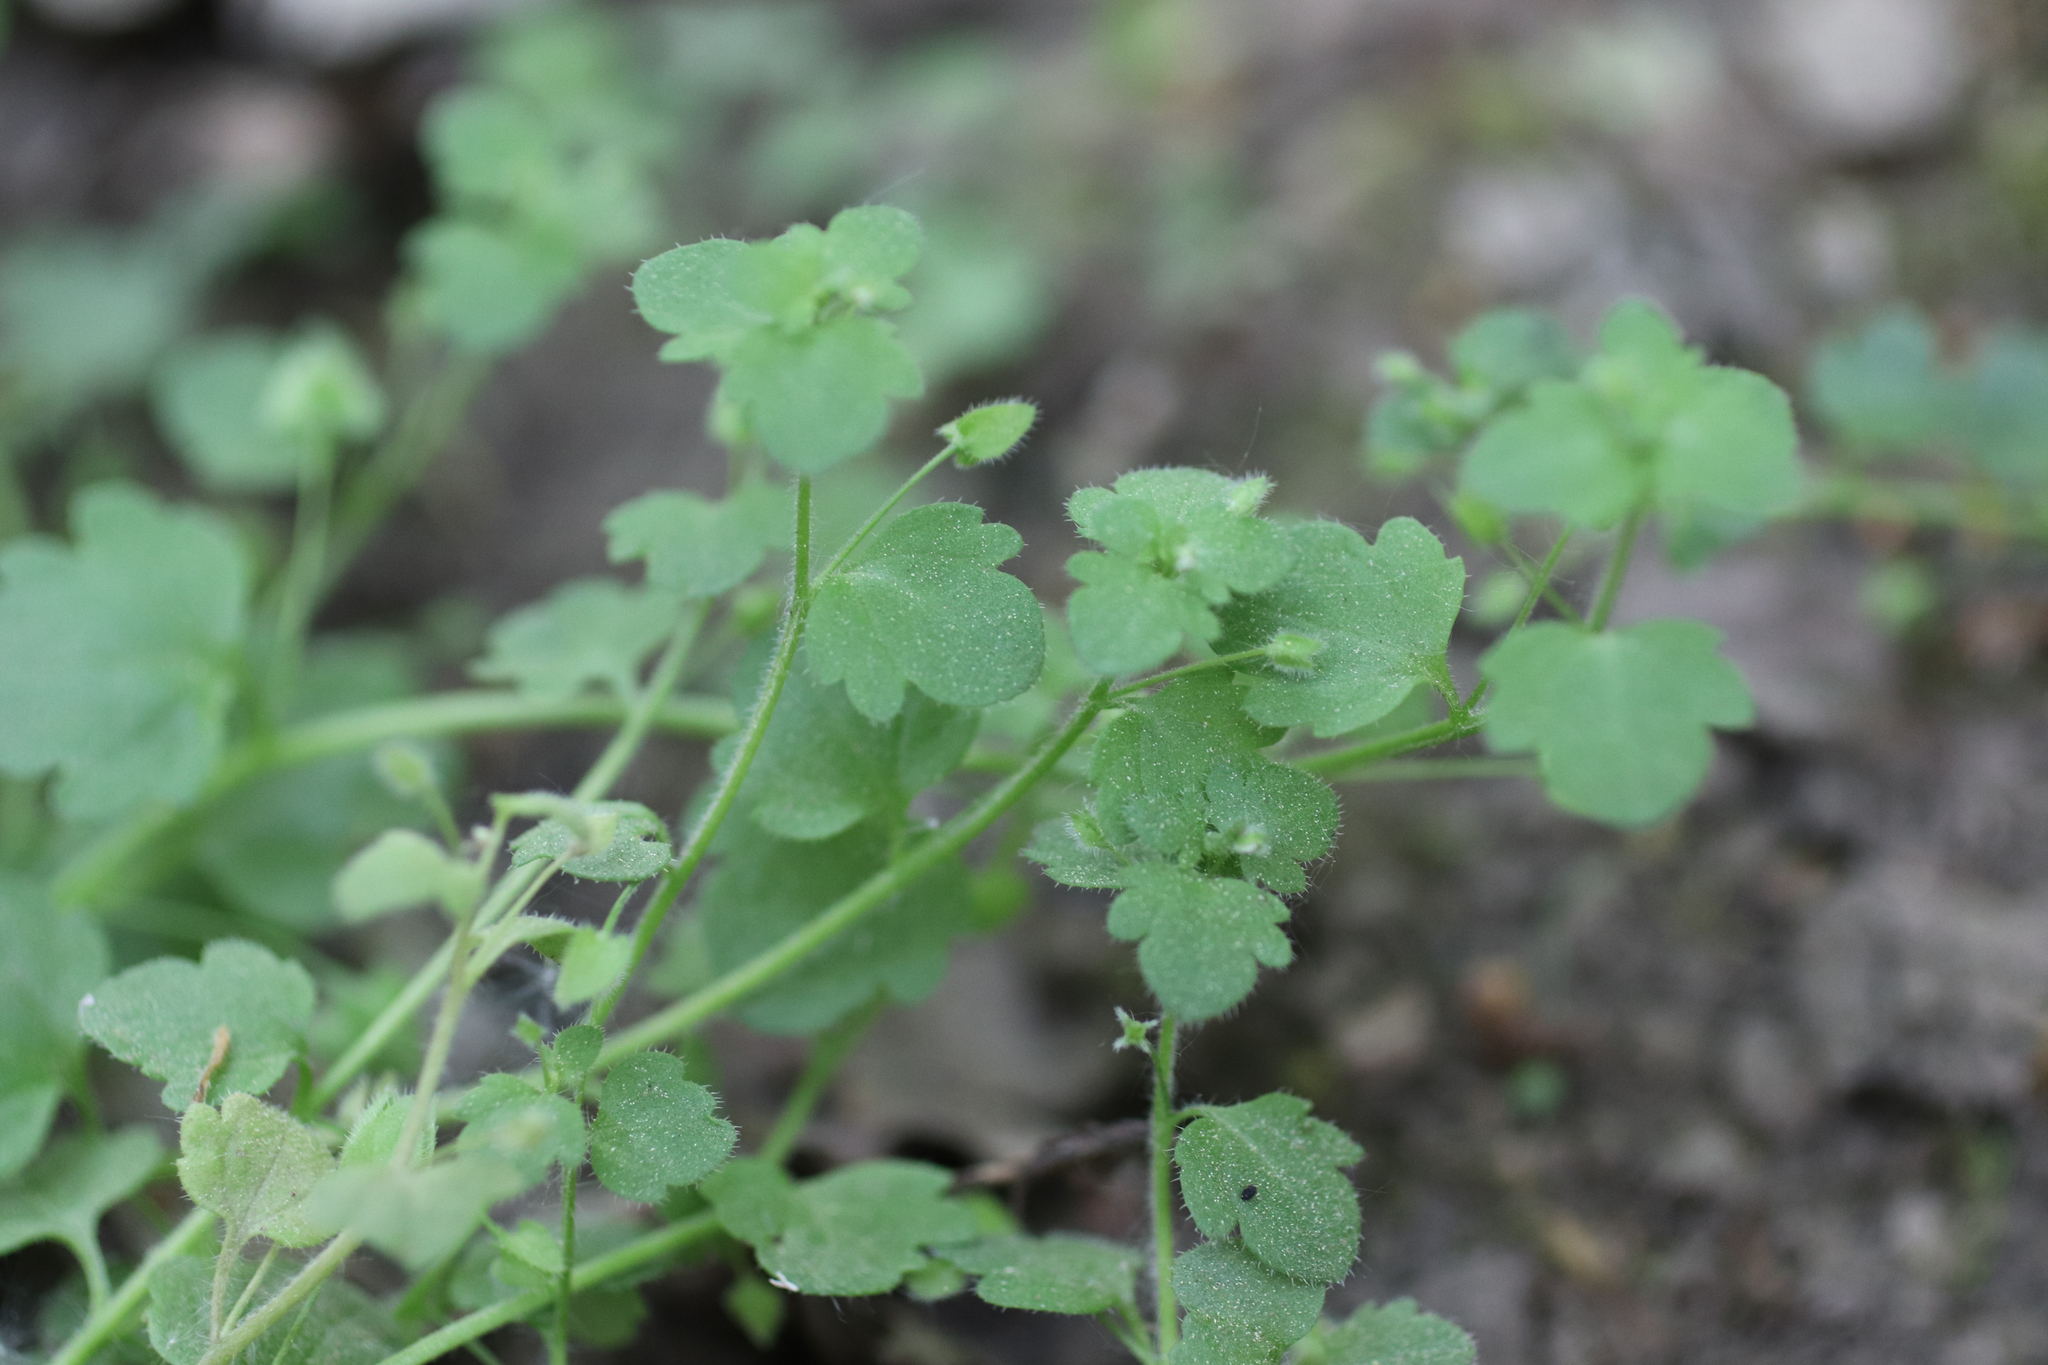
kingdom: Plantae
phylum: Tracheophyta
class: Magnoliopsida
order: Lamiales
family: Plantaginaceae
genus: Veronica
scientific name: Veronica hederifolia
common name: Ivy-leaved speedwell
